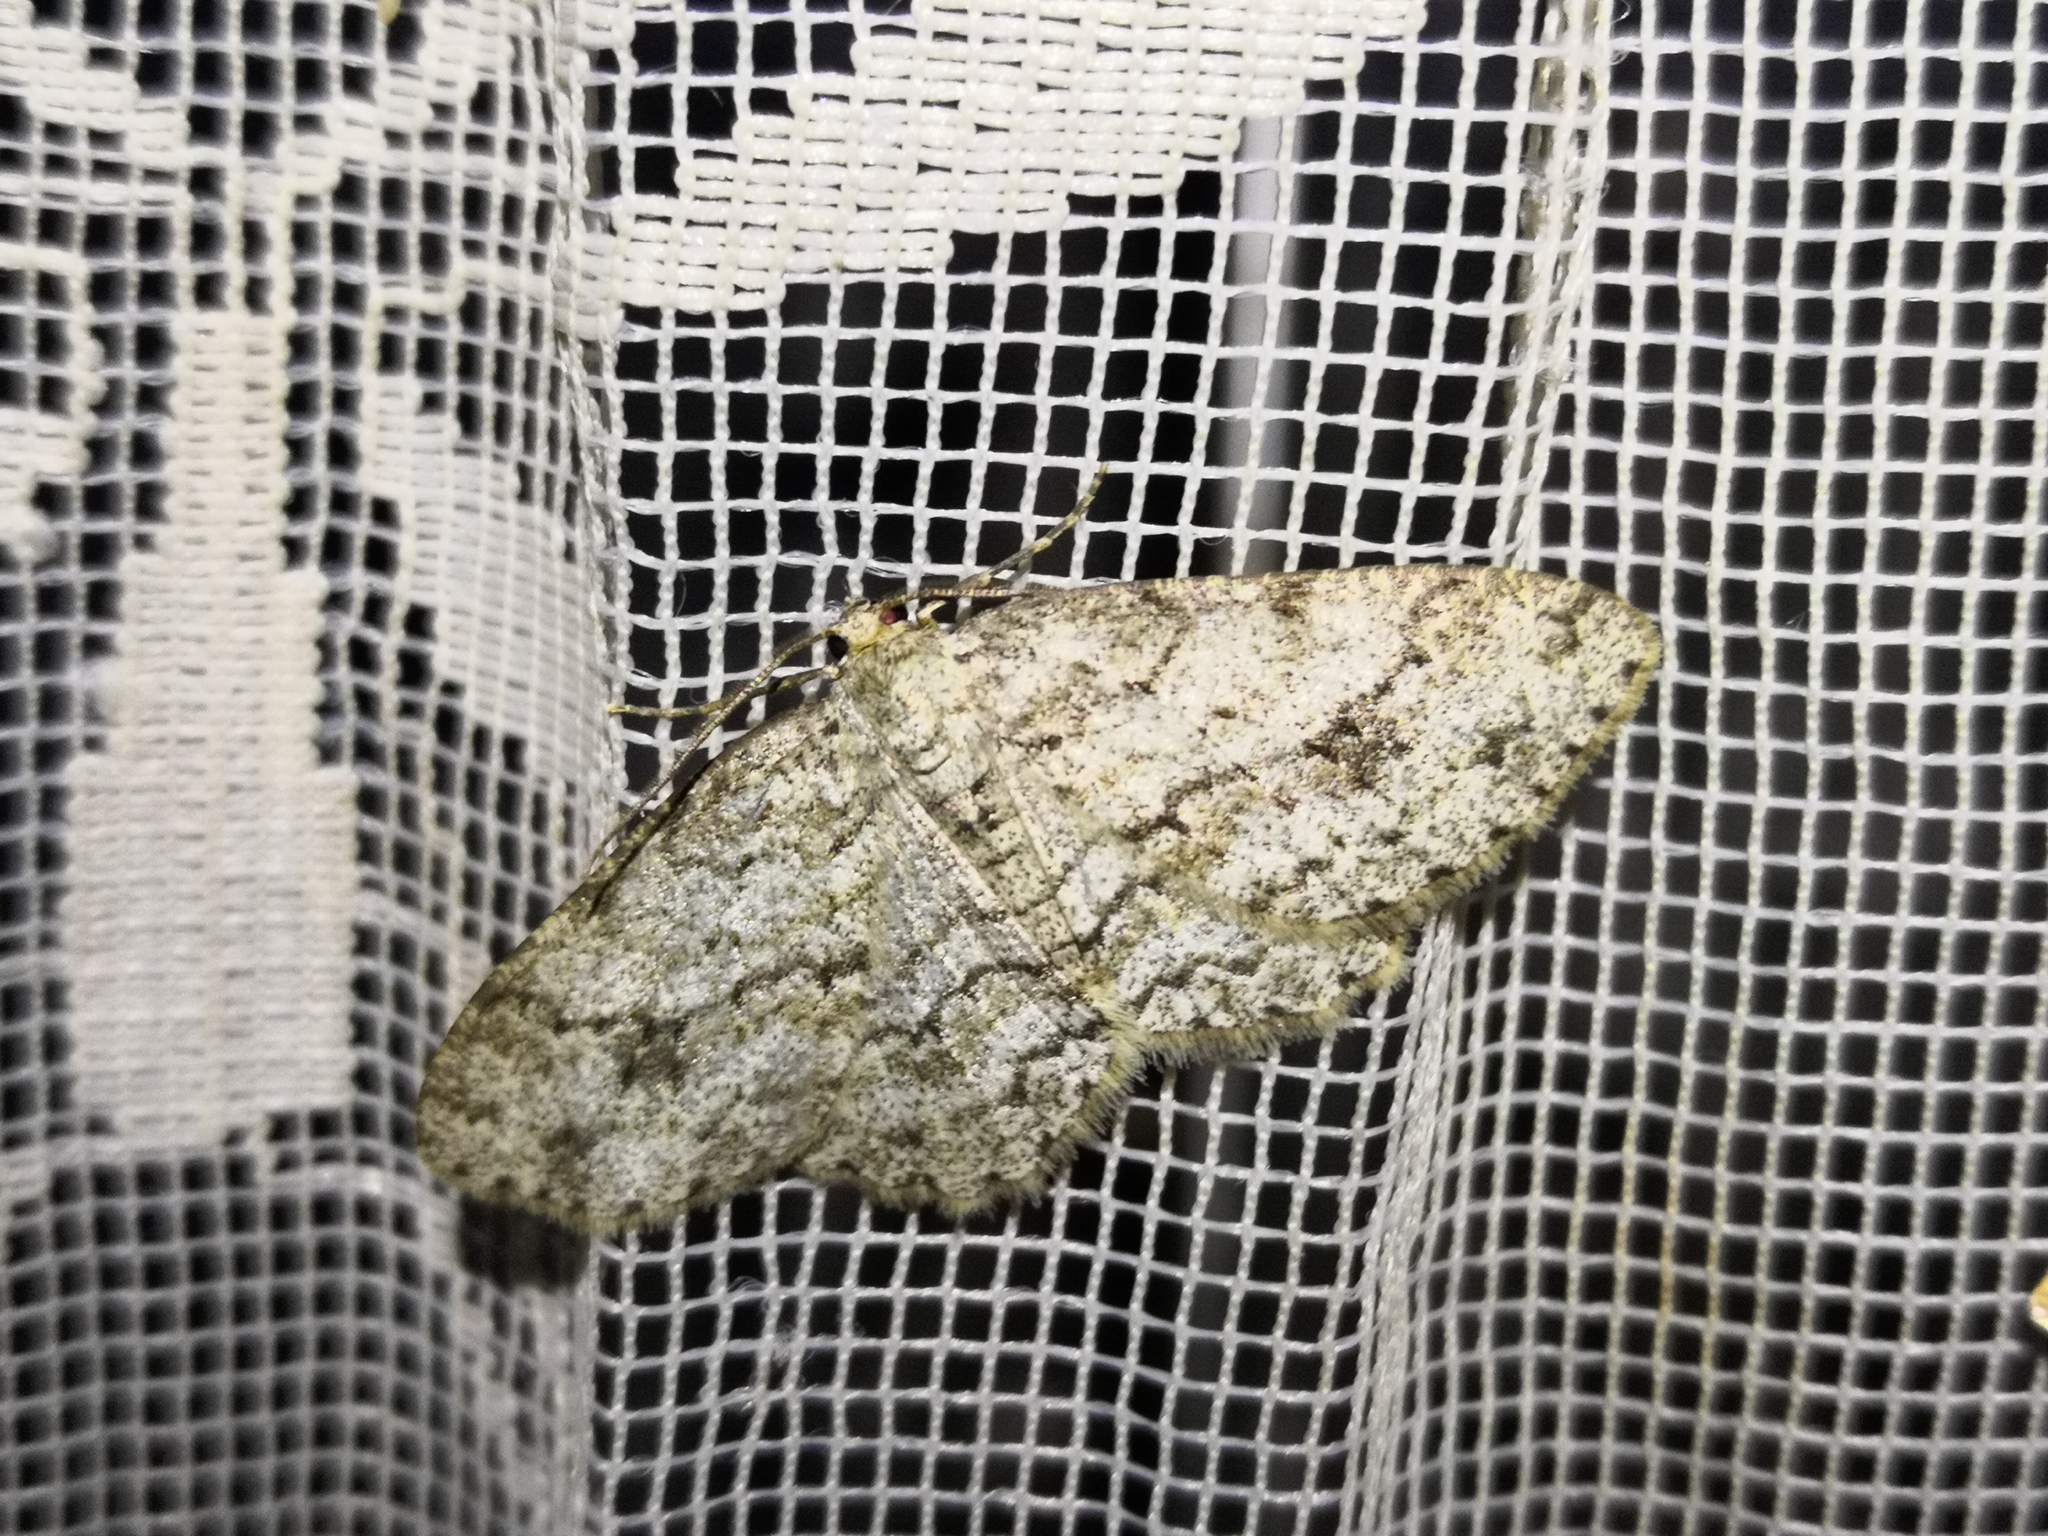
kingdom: Animalia
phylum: Arthropoda
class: Insecta
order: Lepidoptera
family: Geometridae
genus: Ectropis
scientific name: Ectropis crepuscularia
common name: Engrailed
